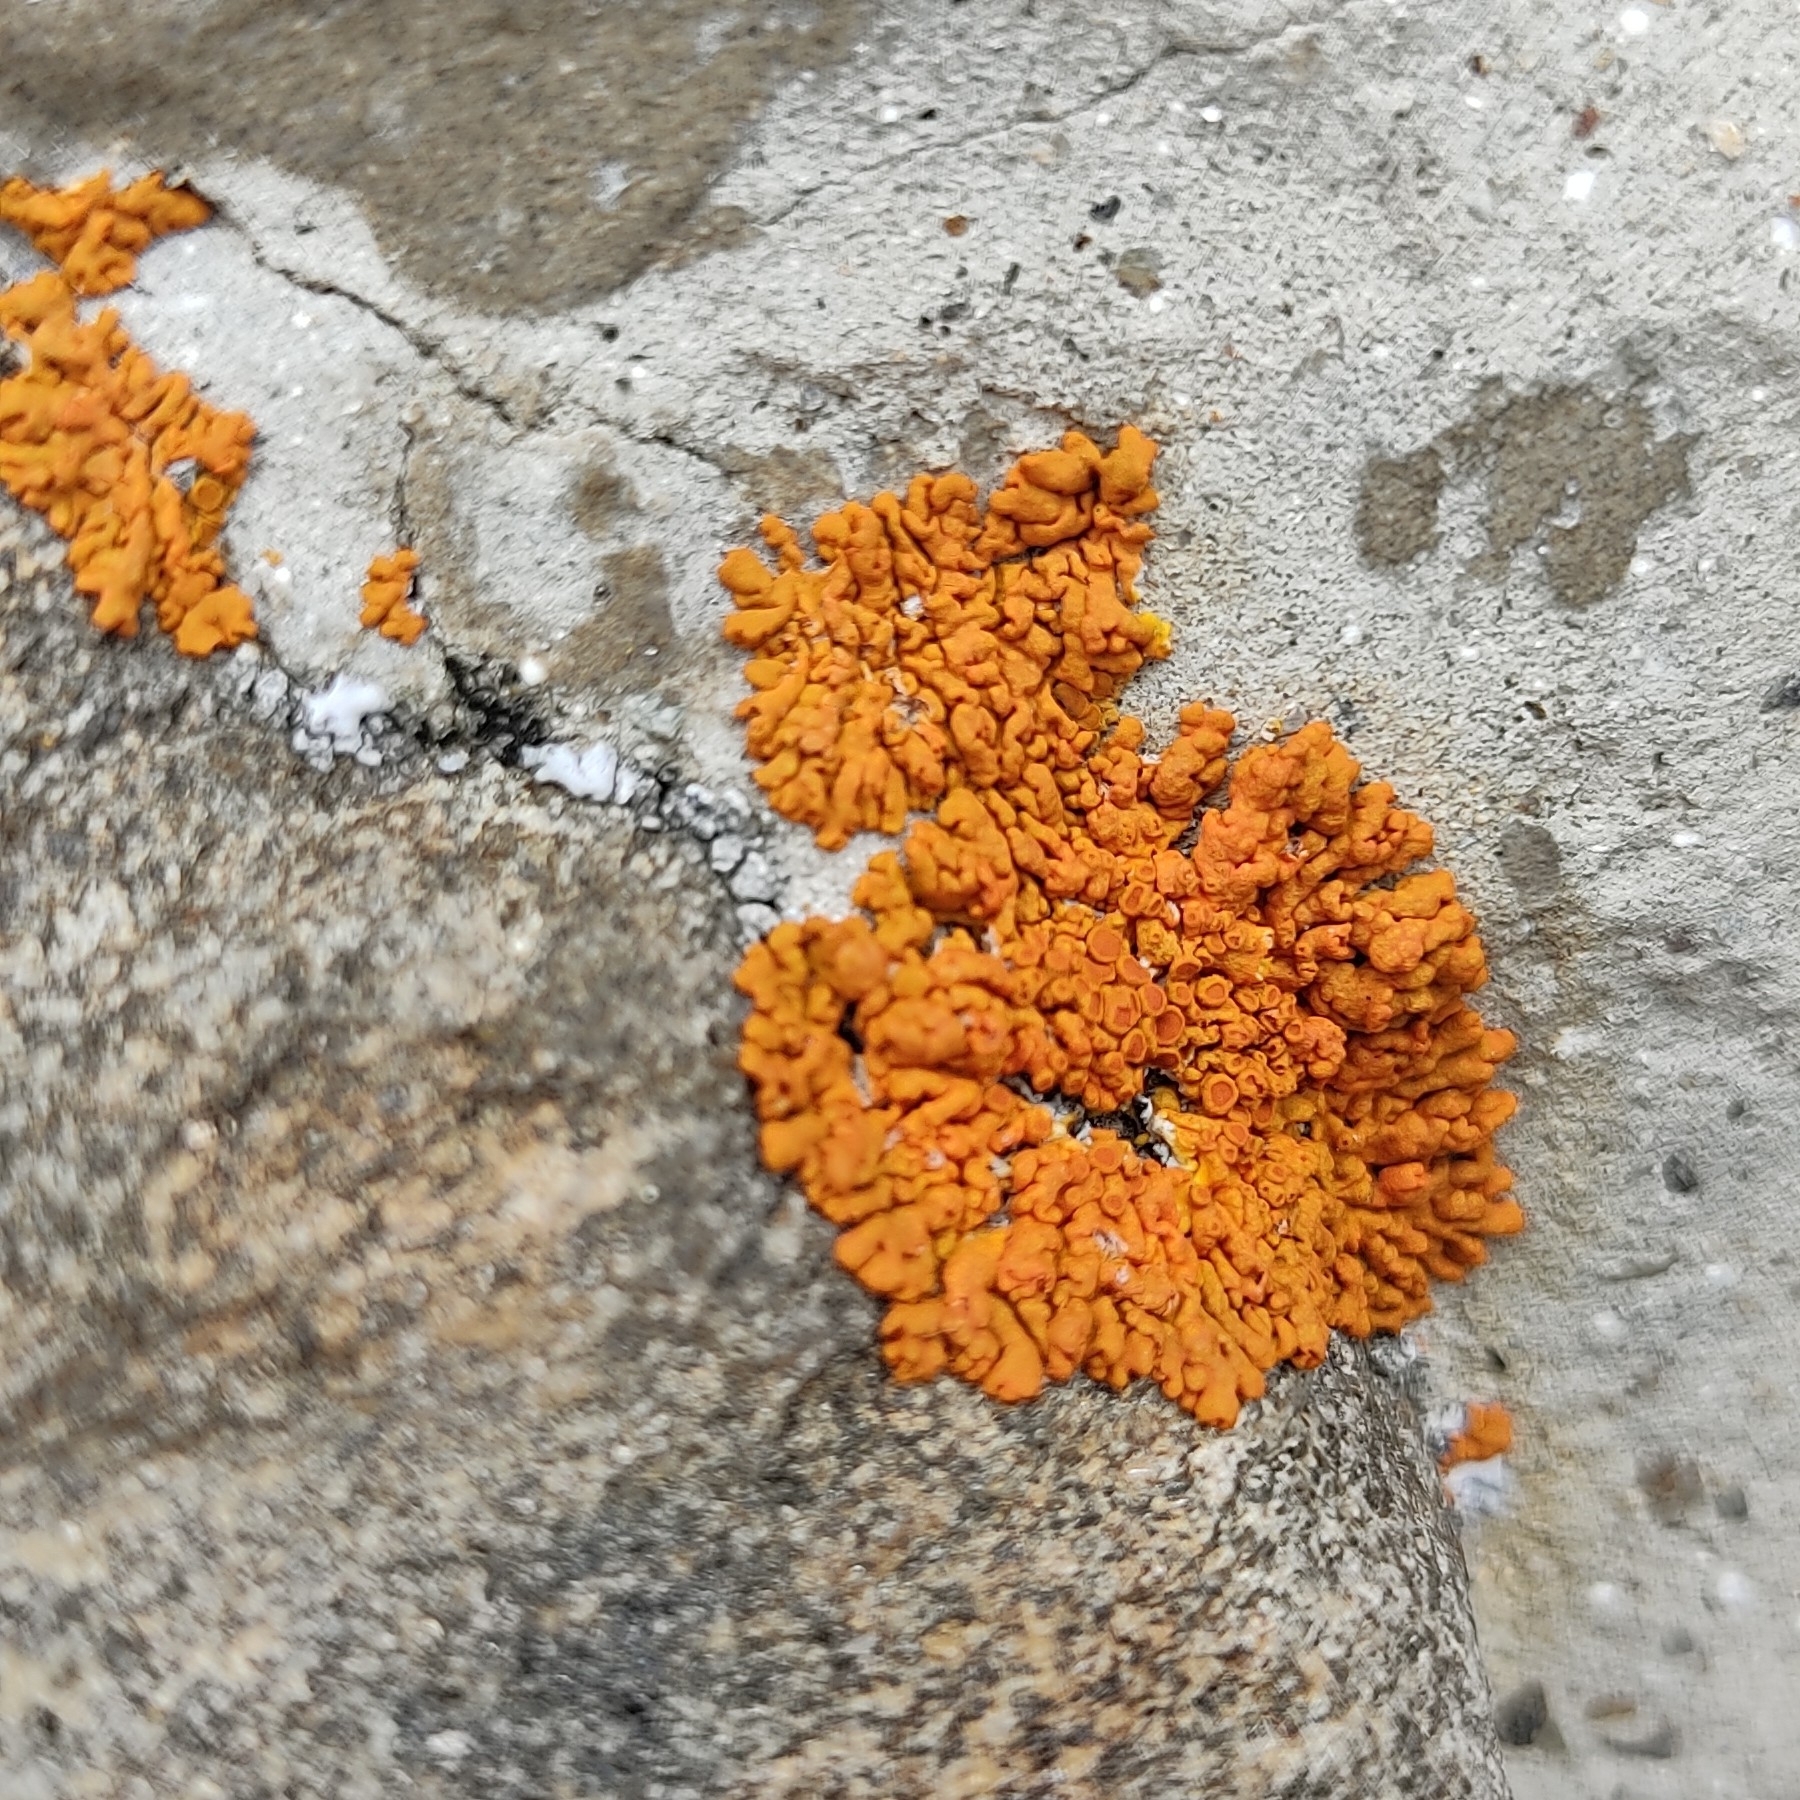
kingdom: Fungi
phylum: Ascomycota
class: Lecanoromycetes
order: Teloschistales
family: Teloschistaceae
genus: Xanthoria
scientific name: Xanthoria elegans
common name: Elegant sunburst lichen
